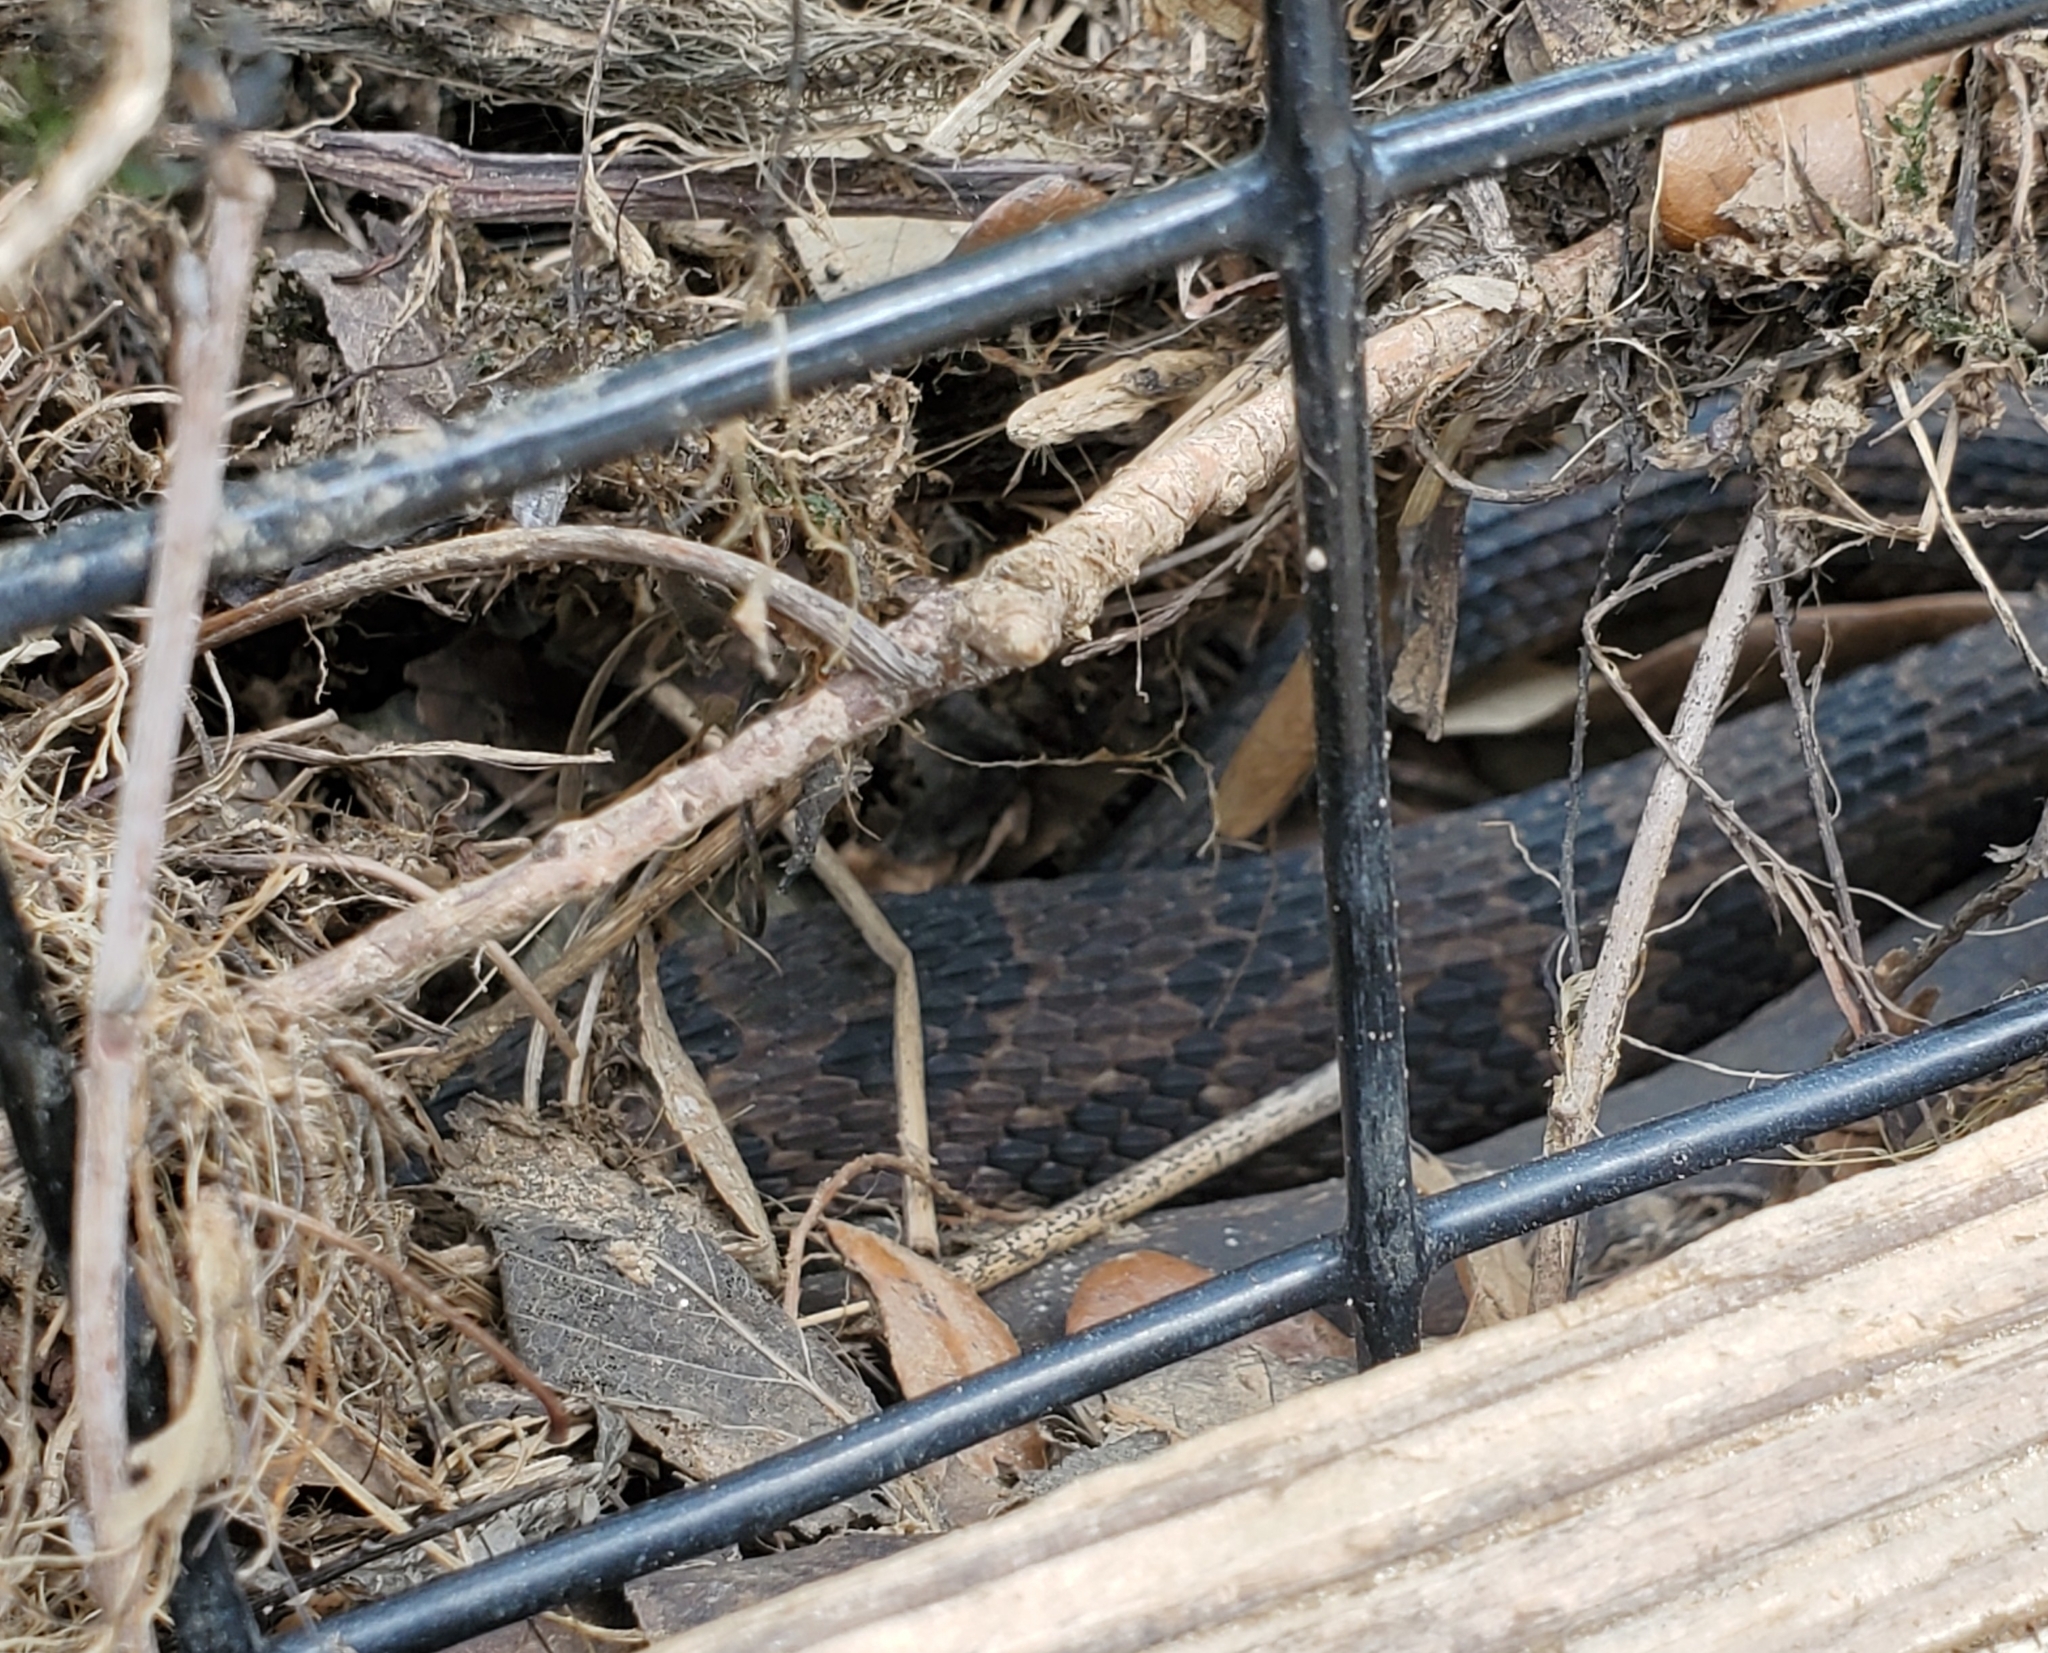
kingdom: Animalia
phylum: Chordata
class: Squamata
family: Colubridae
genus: Nerodia
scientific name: Nerodia taxispilota
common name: Brown water snake
